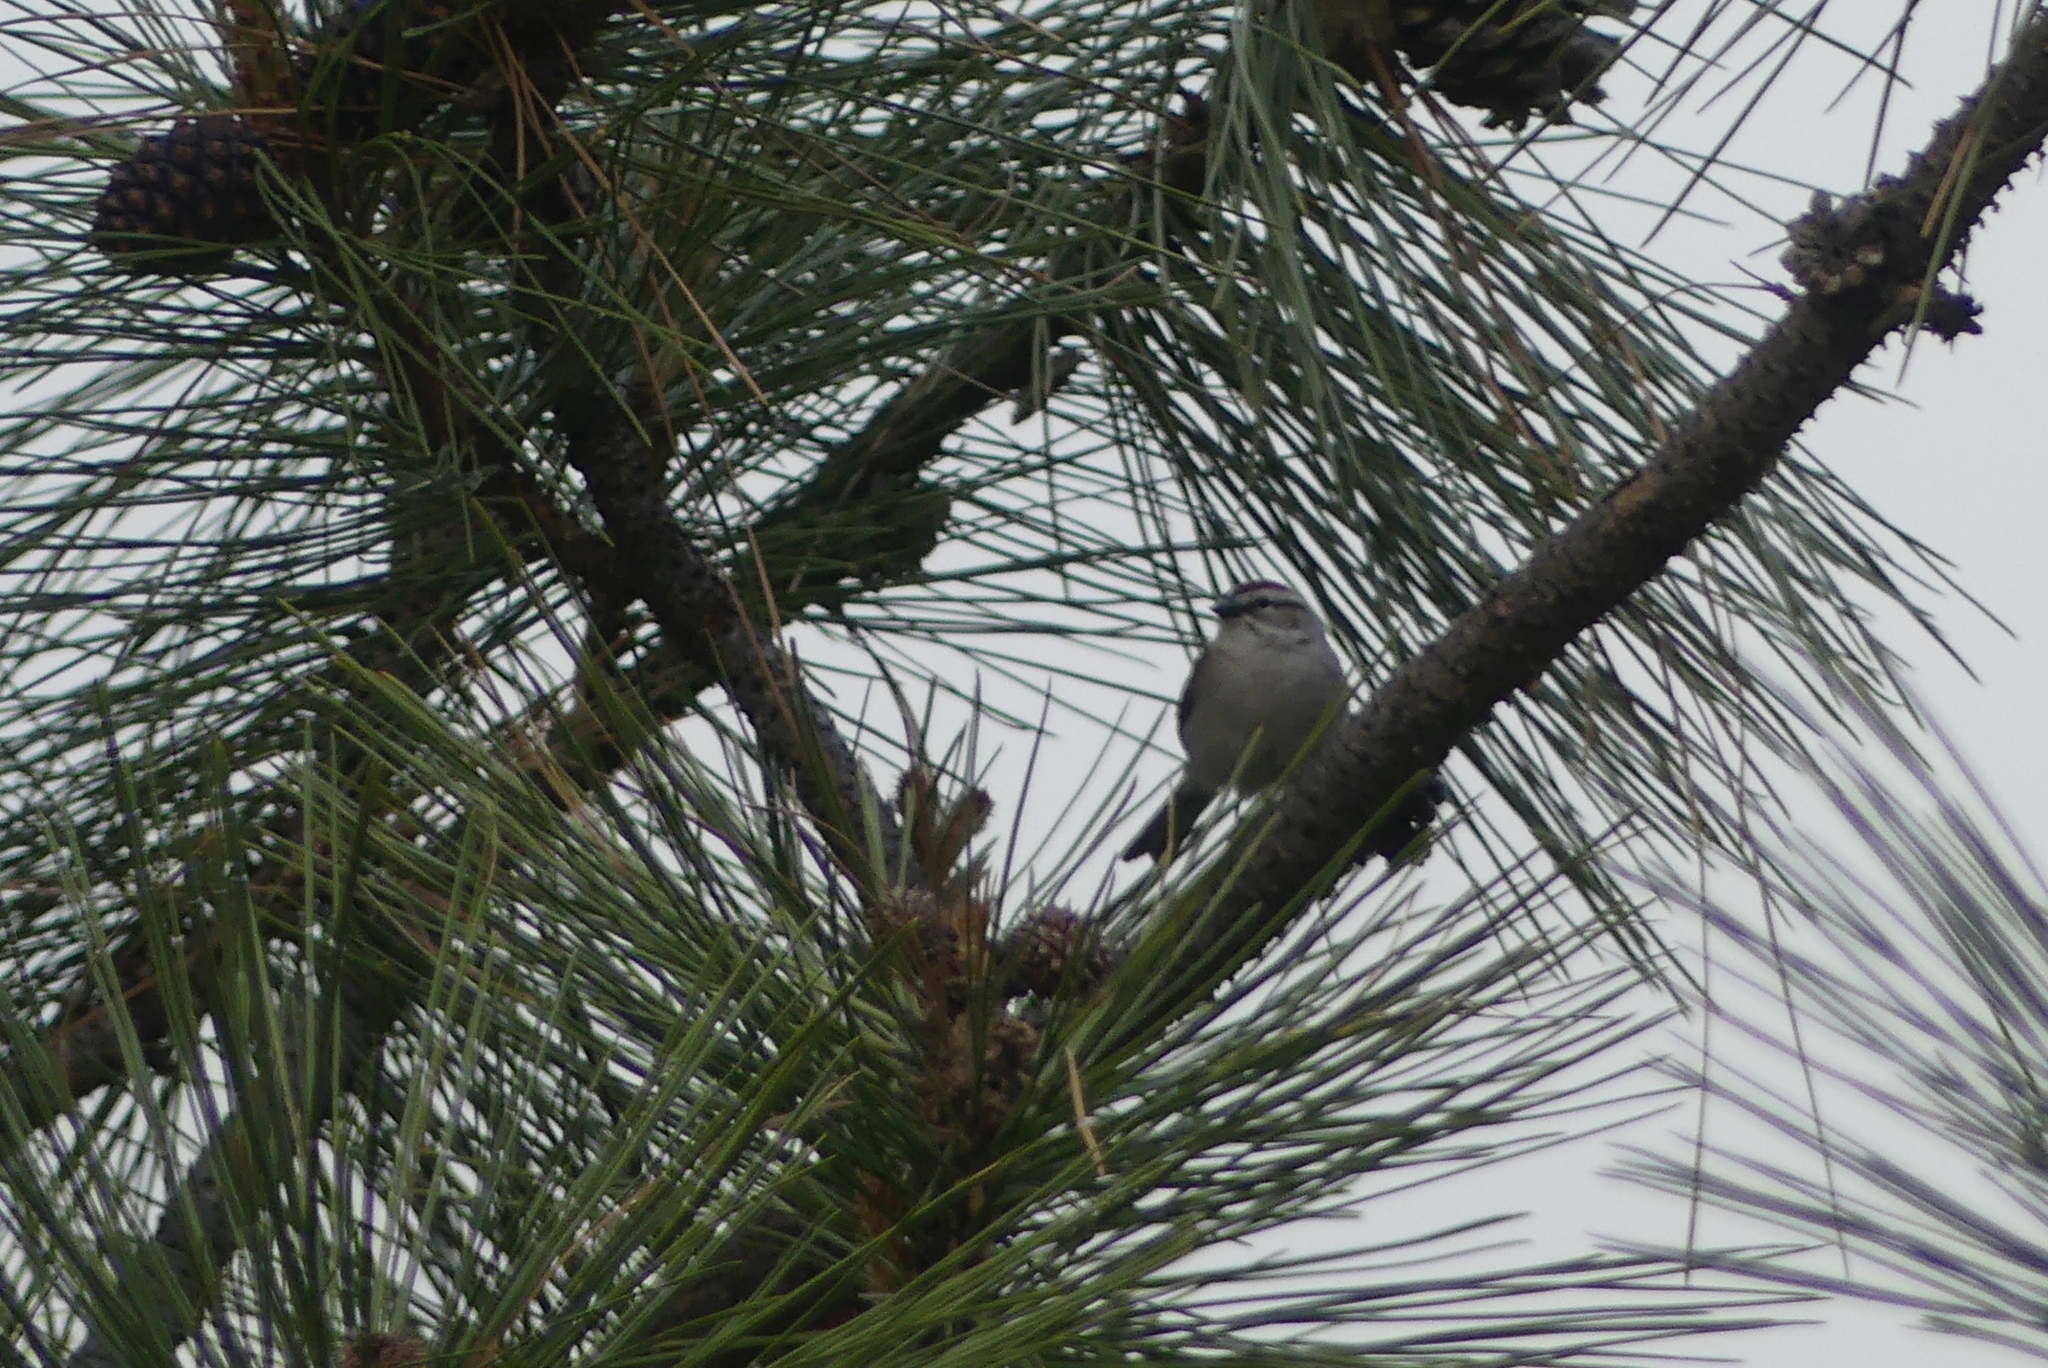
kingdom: Animalia
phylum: Chordata
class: Aves
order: Passeriformes
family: Passerellidae
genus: Spizella
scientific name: Spizella passerina
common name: Chipping sparrow
